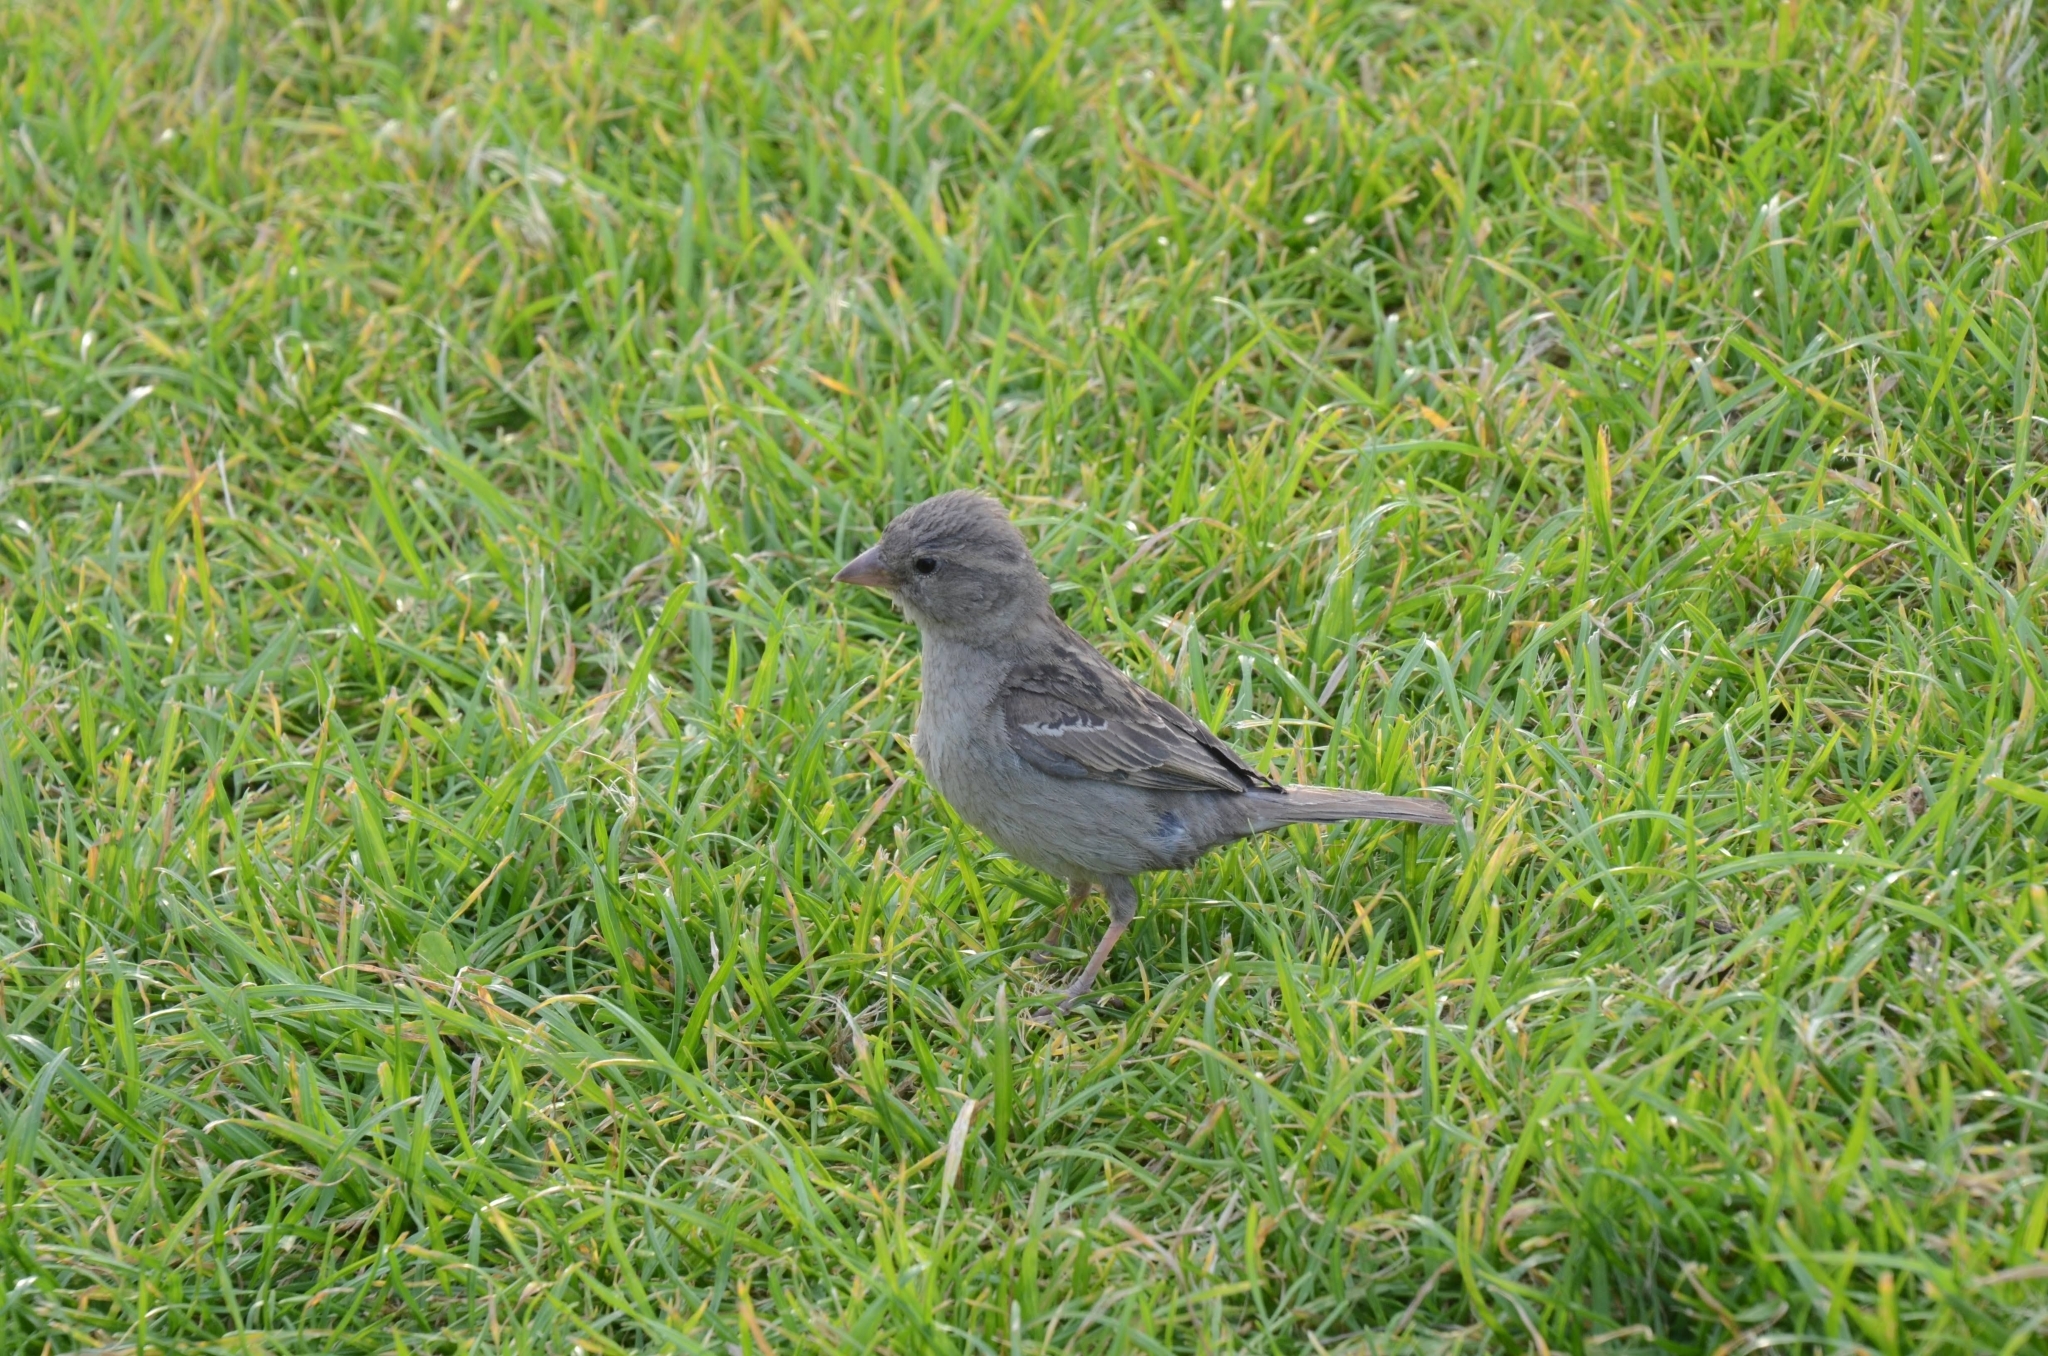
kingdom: Animalia
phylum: Chordata
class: Aves
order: Passeriformes
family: Passeridae
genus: Passer
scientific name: Passer domesticus
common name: House sparrow
